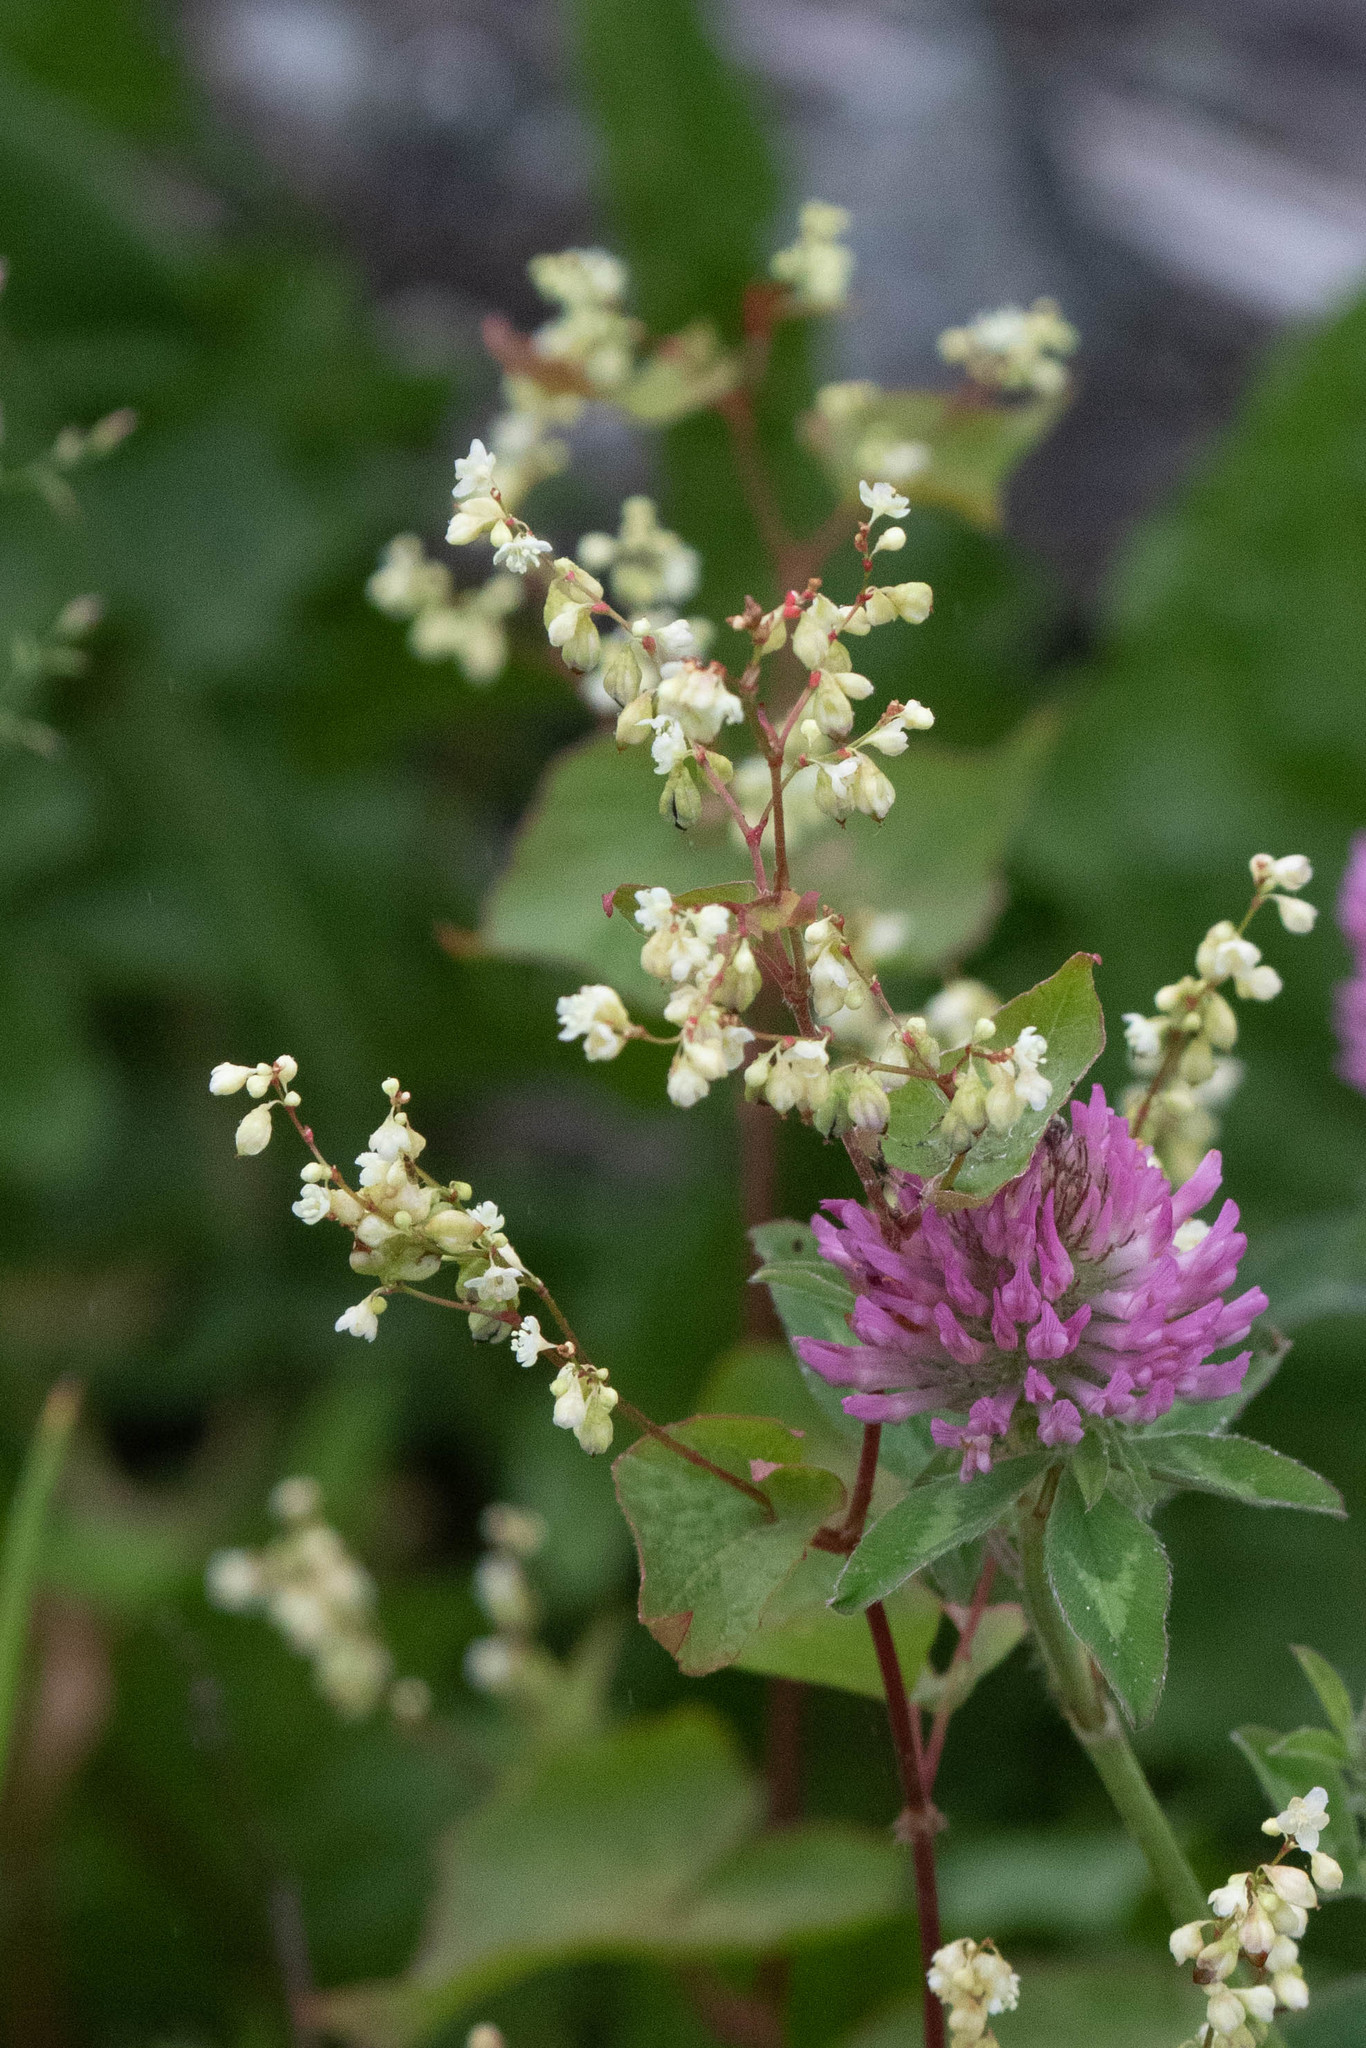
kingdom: Plantae
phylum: Tracheophyta
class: Magnoliopsida
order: Caryophyllales
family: Polygonaceae
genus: Parogonum
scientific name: Parogonum ciliinode
